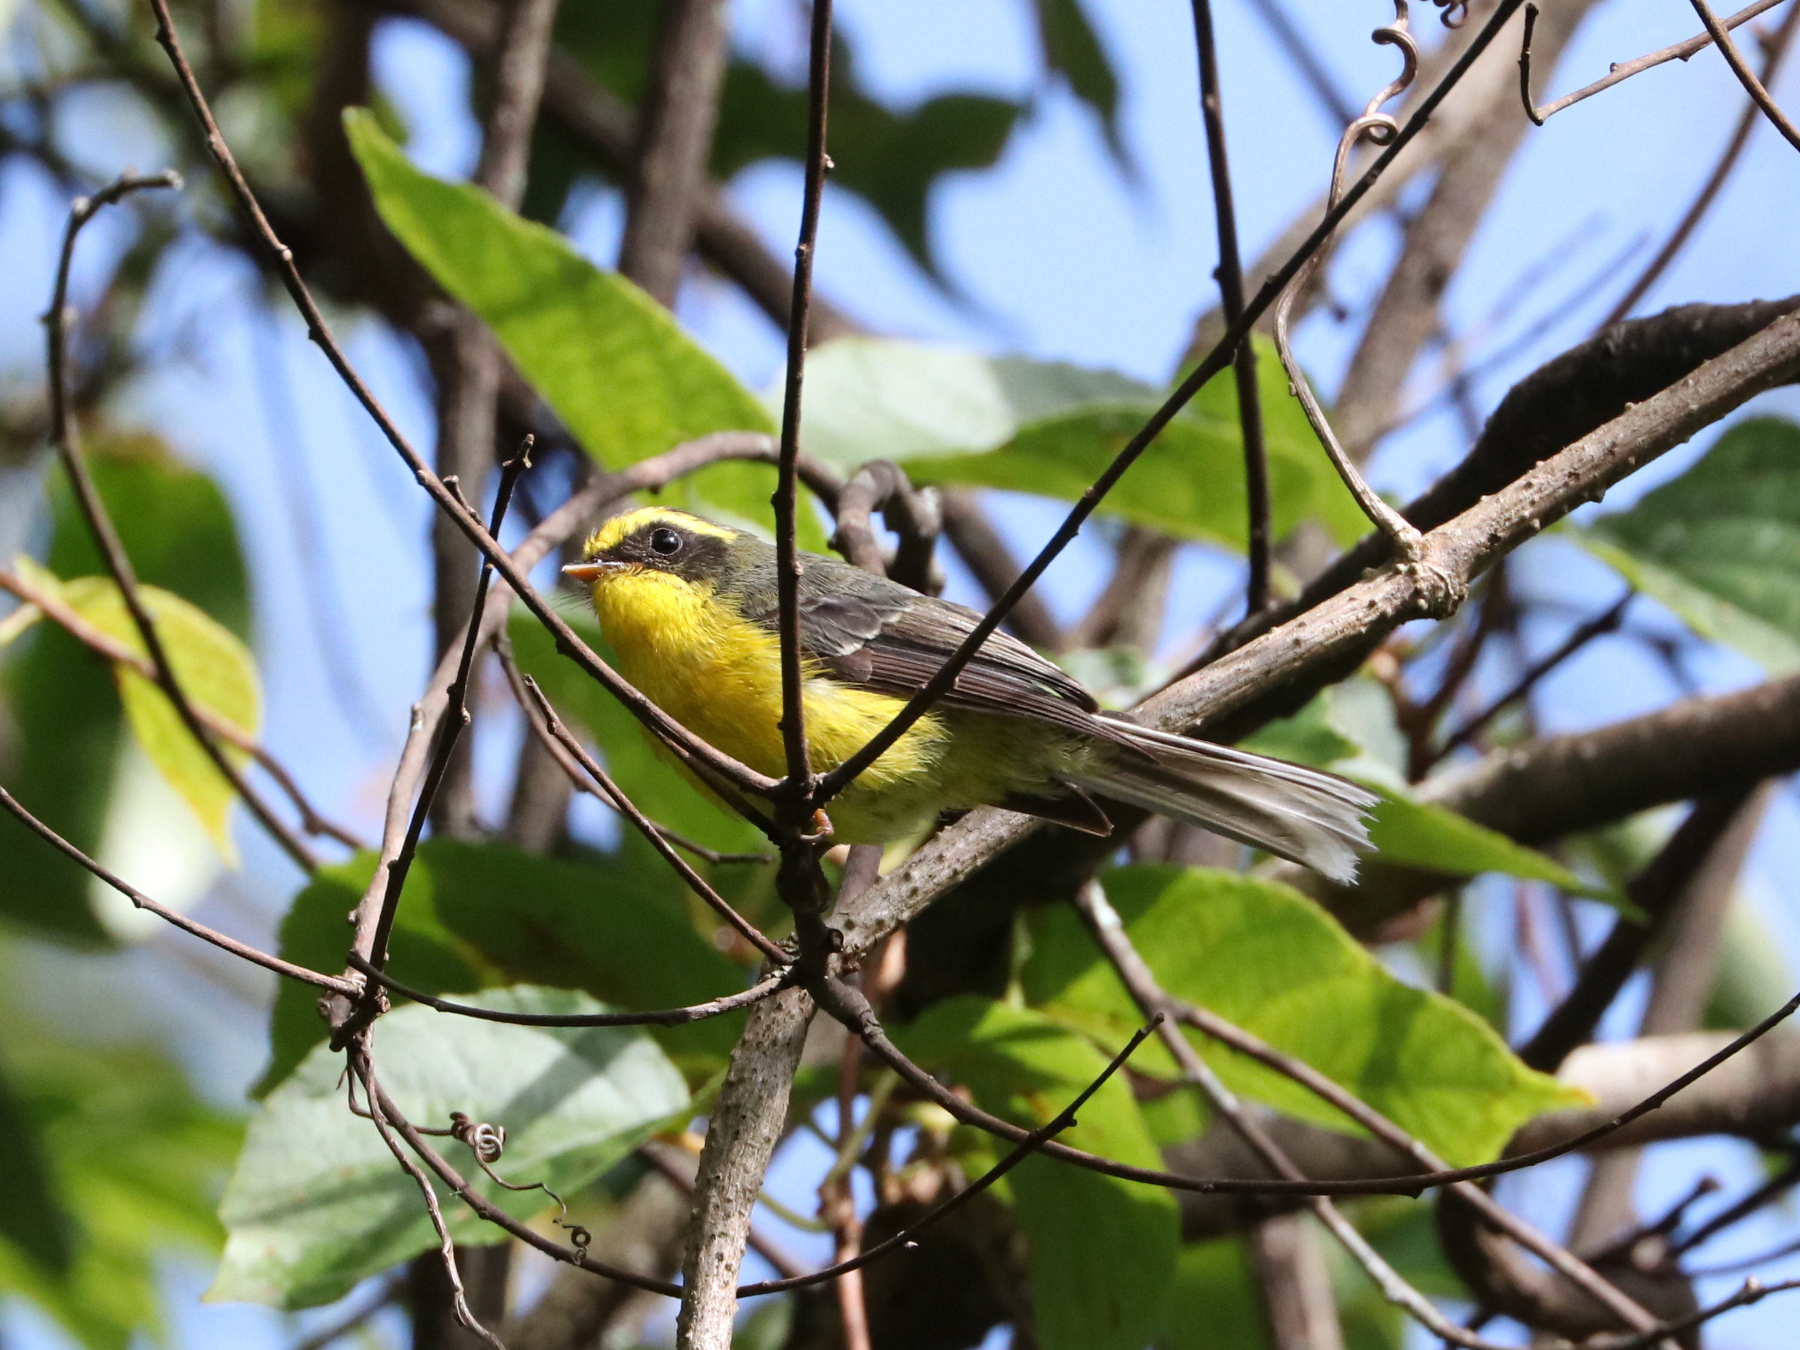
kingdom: Animalia
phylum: Chordata
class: Aves
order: Passeriformes
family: Stenostiridae
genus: Chelidorhynx
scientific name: Chelidorhynx hypoxantha
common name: Yellow-bellied fantail
